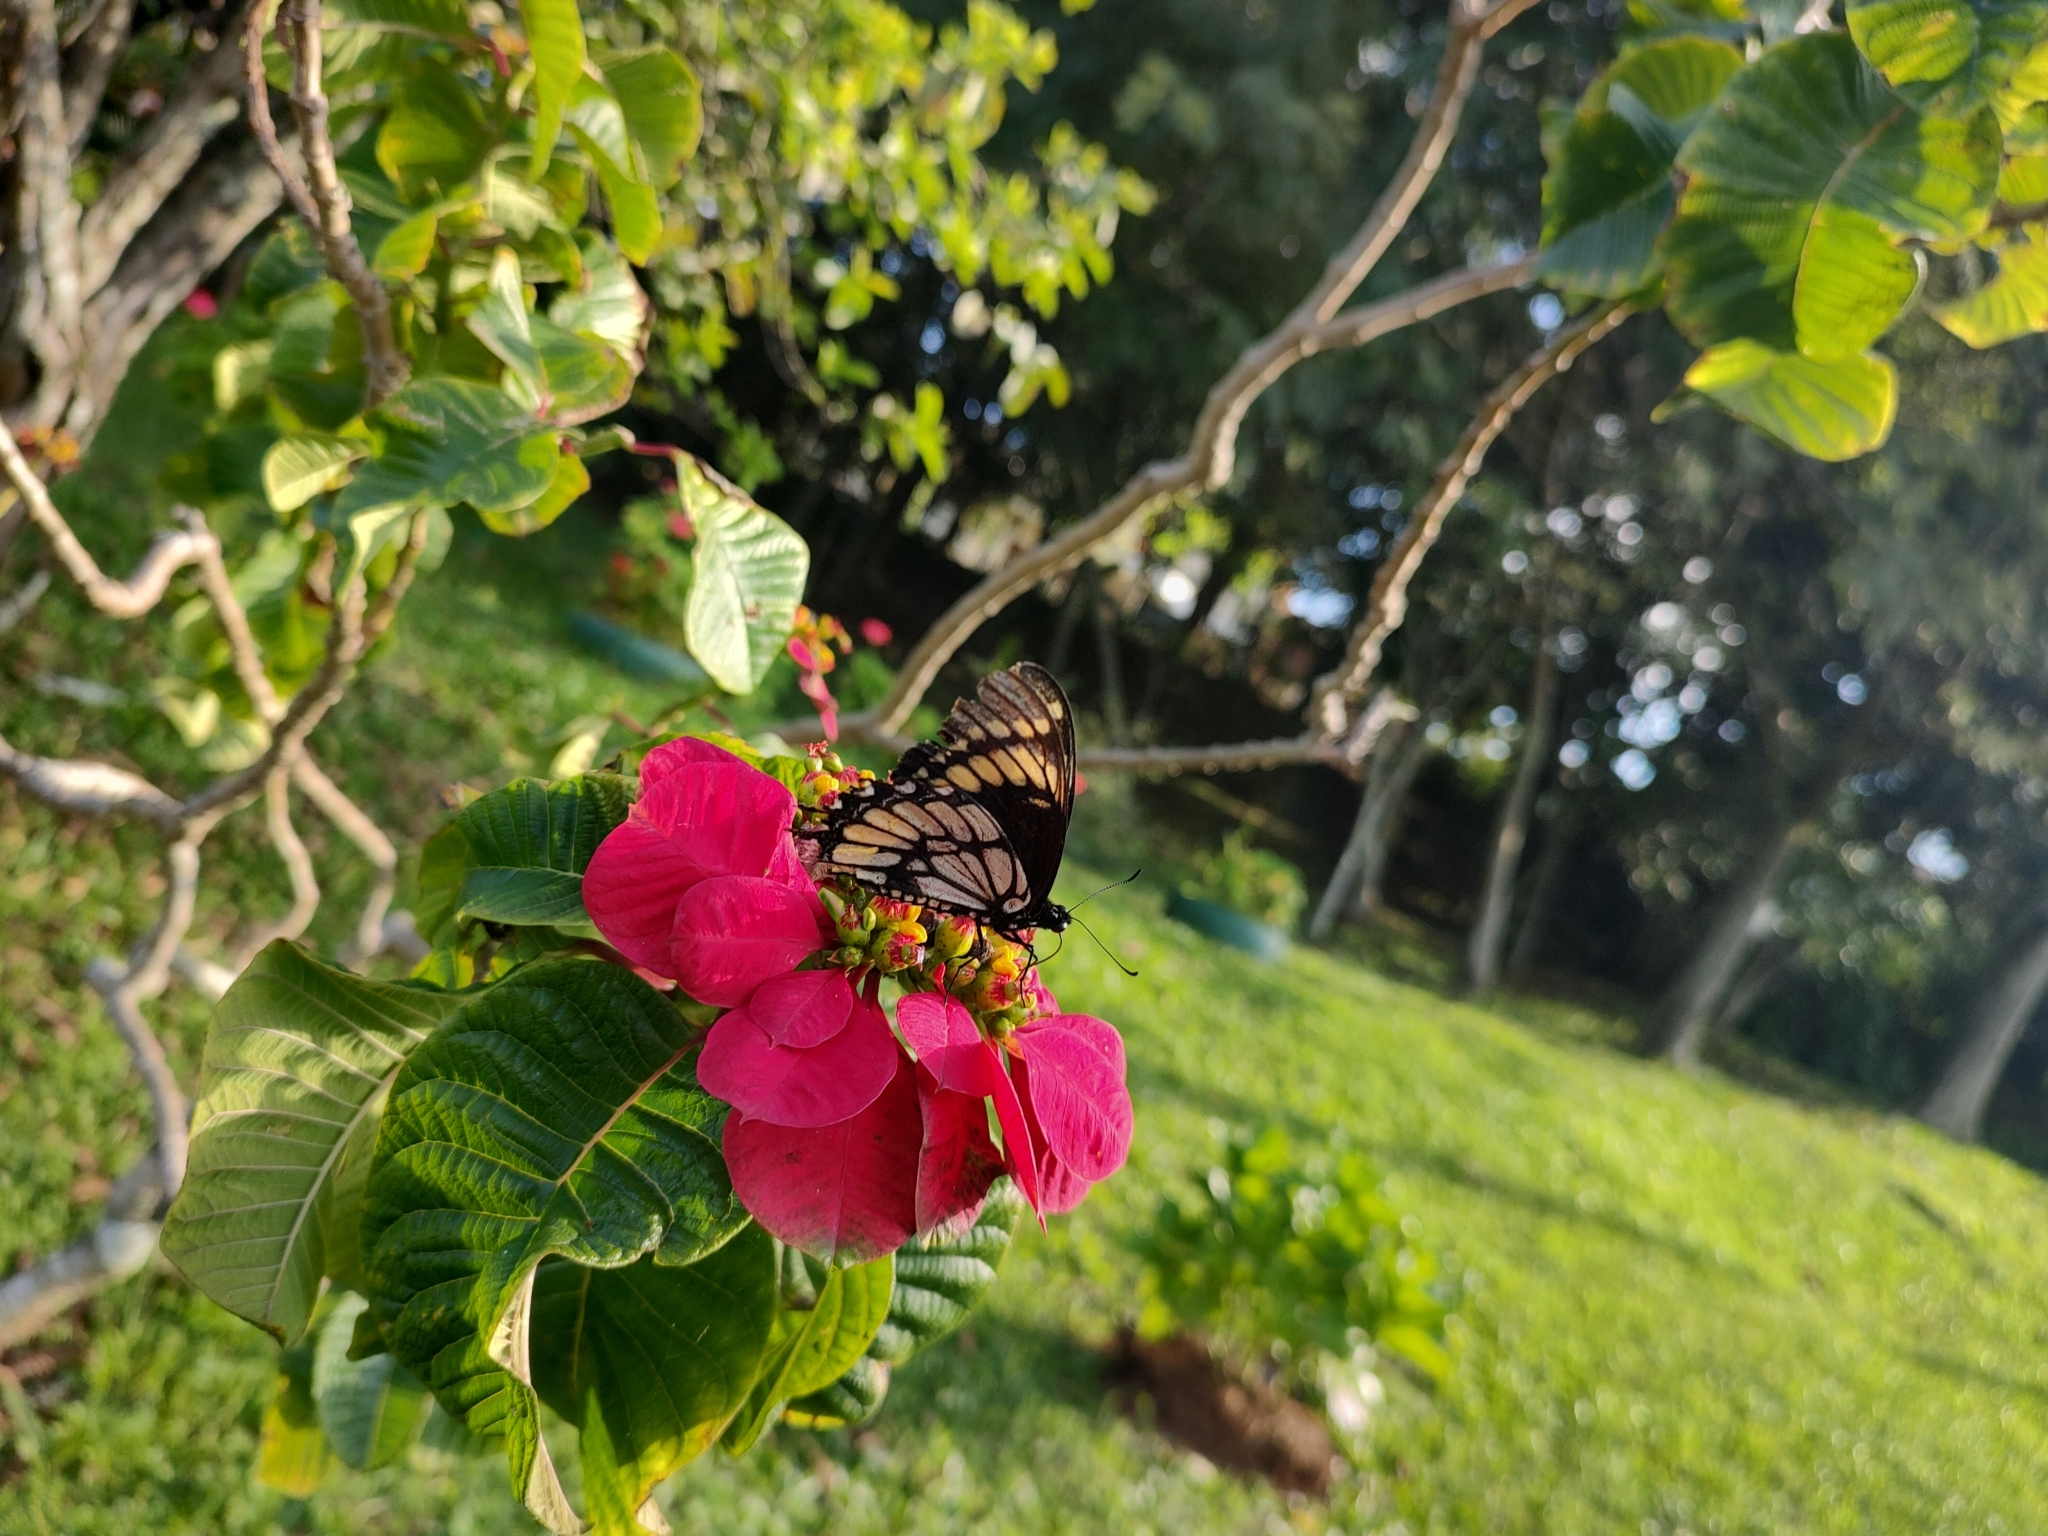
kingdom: Animalia
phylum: Arthropoda
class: Insecta
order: Lepidoptera
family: Papilionidae
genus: Papilio
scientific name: Papilio scamander
